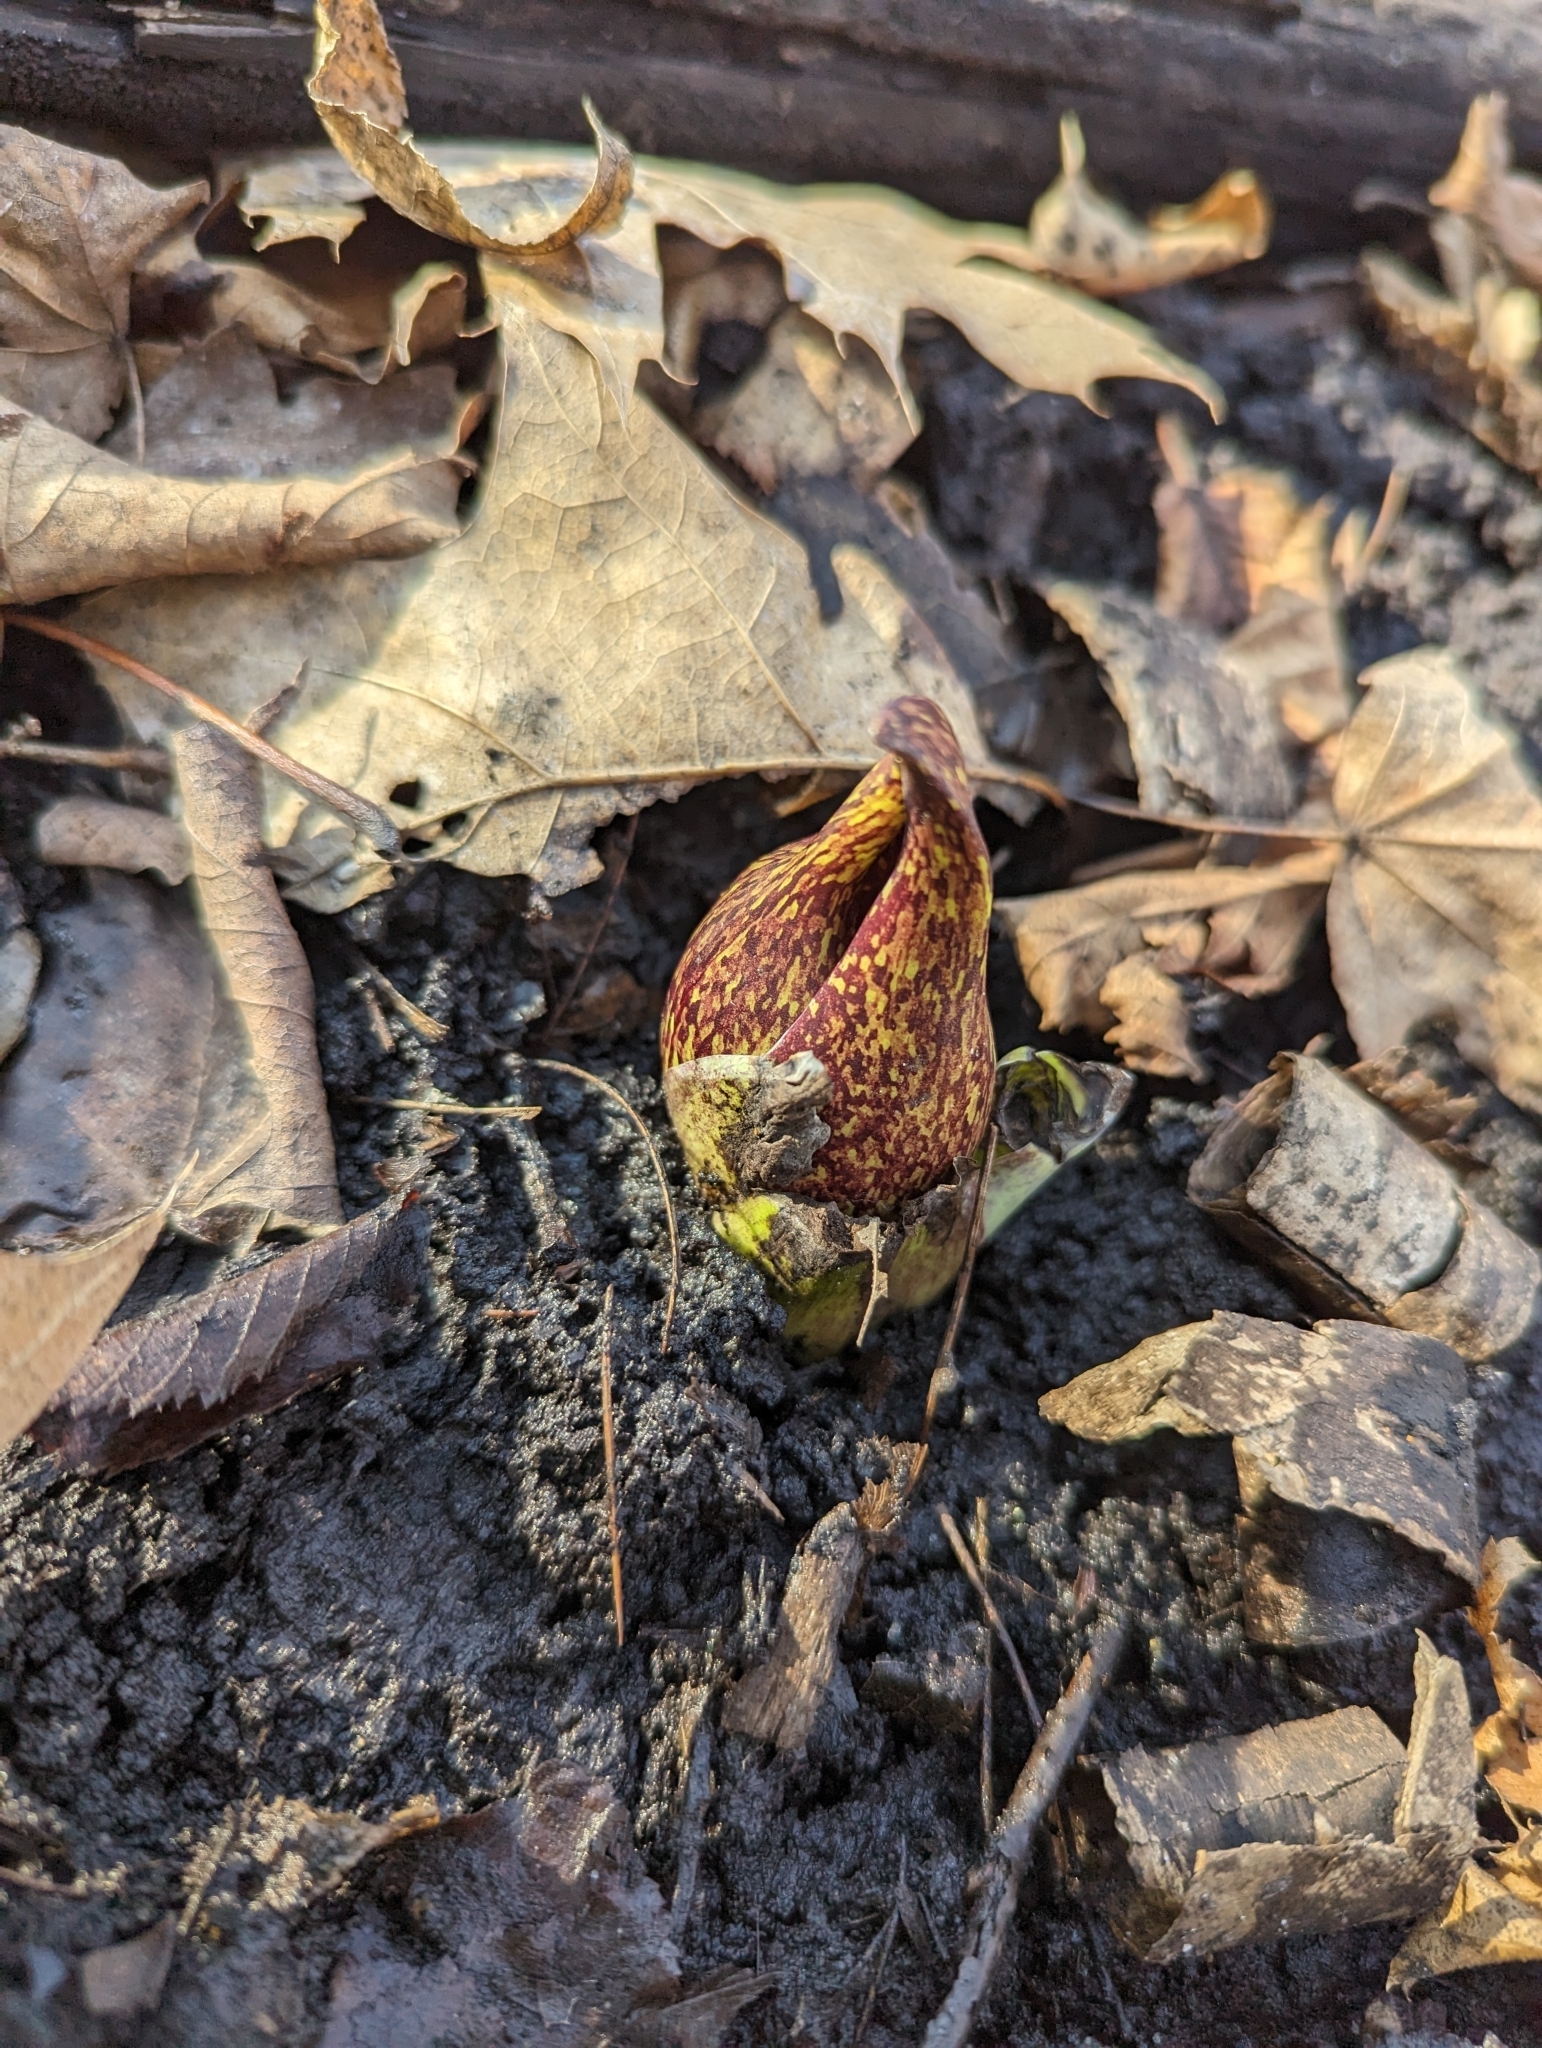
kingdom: Plantae
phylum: Tracheophyta
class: Liliopsida
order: Alismatales
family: Araceae
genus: Symplocarpus
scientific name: Symplocarpus foetidus
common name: Eastern skunk cabbage
